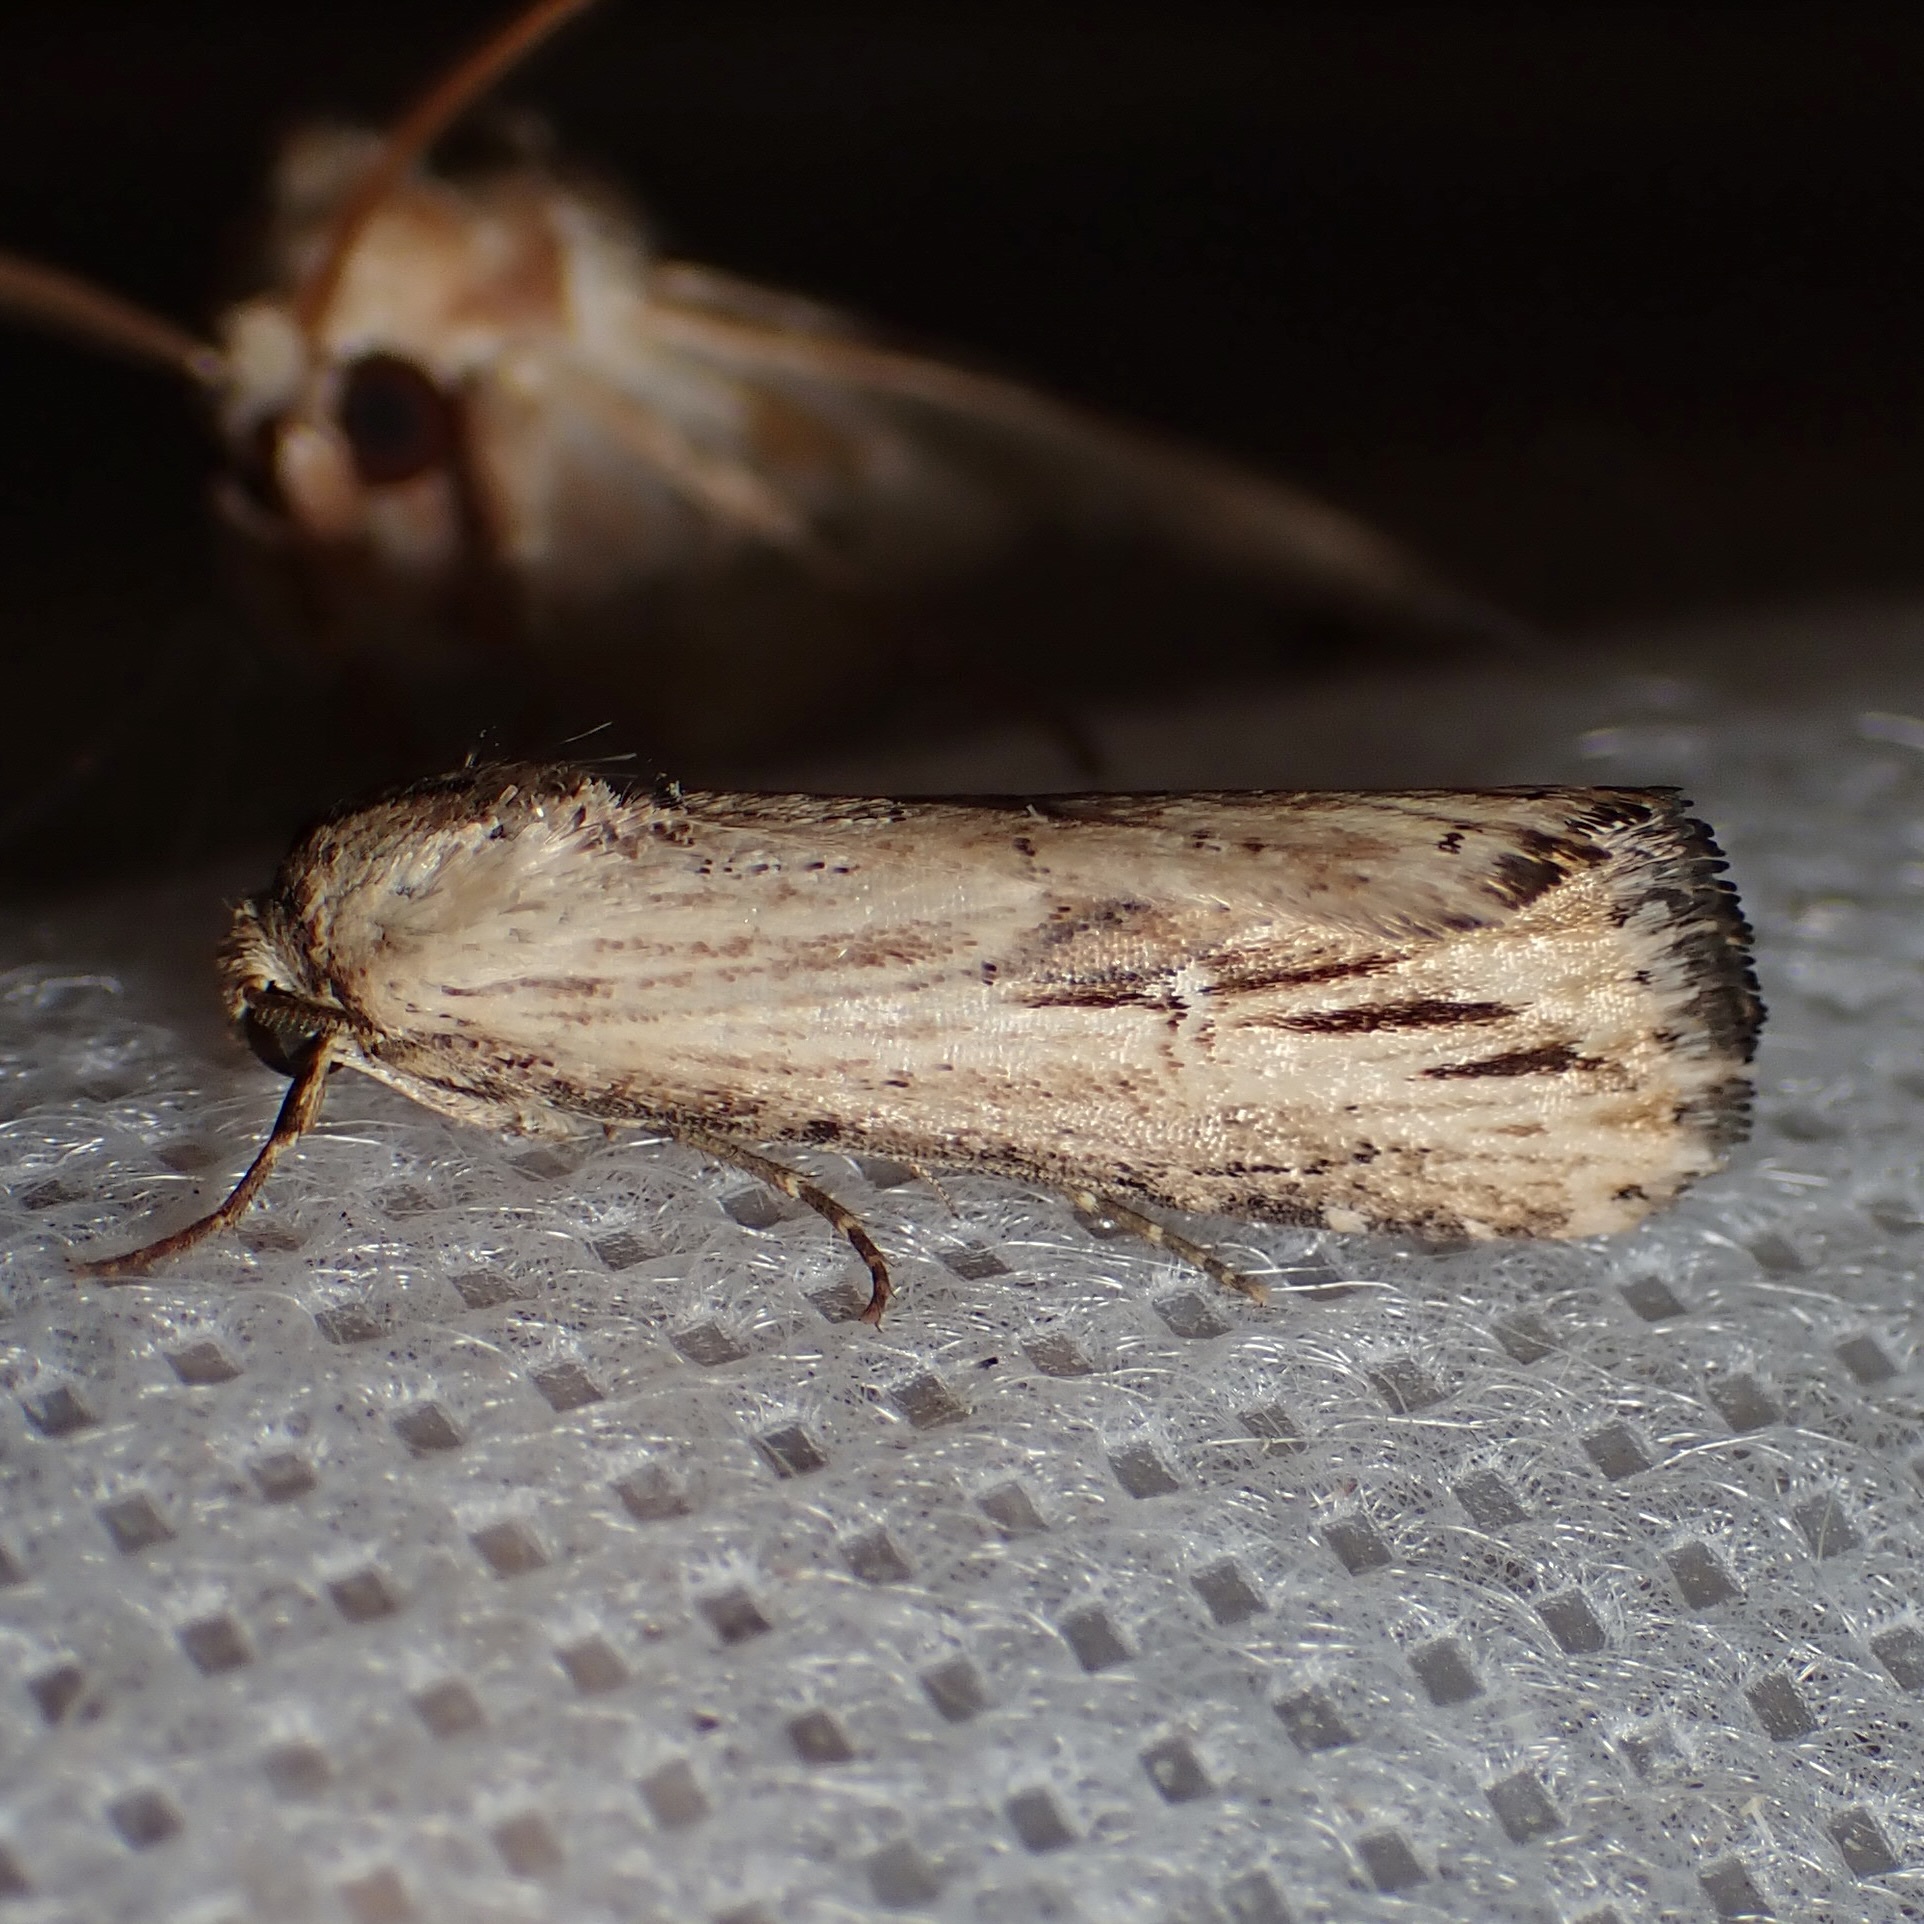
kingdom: Animalia
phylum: Arthropoda
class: Insecta
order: Lepidoptera
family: Noctuidae
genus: Crambodes
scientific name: Crambodes talidiformis
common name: Verbena moth
